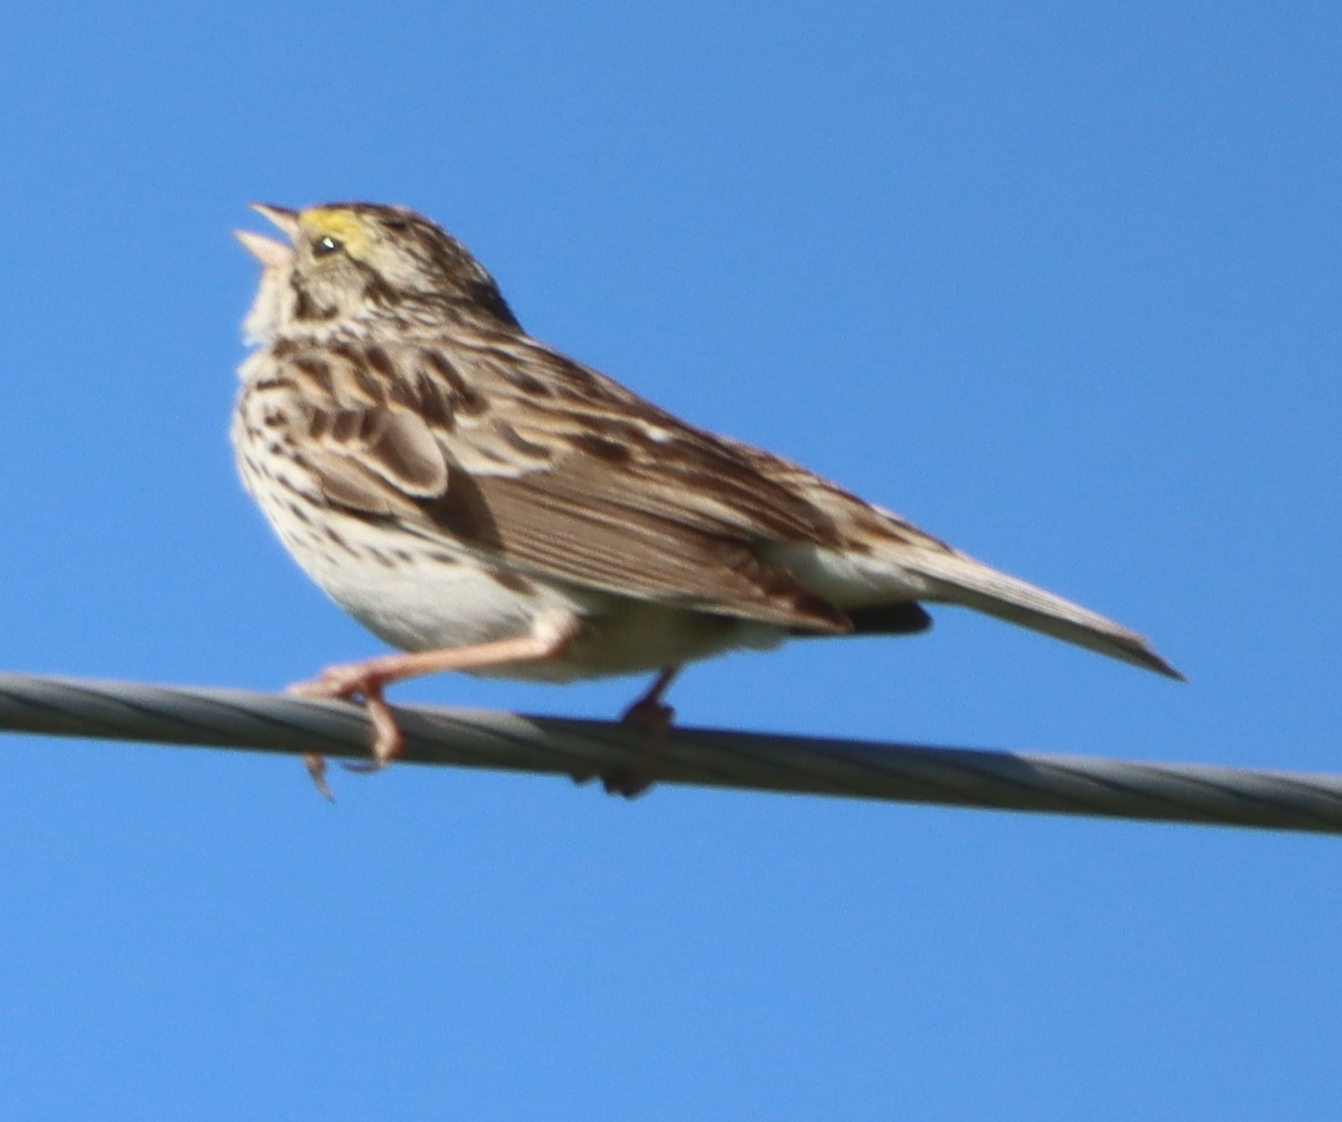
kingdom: Animalia
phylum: Chordata
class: Aves
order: Passeriformes
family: Passerellidae
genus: Passerculus
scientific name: Passerculus sandwichensis
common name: Savannah sparrow
